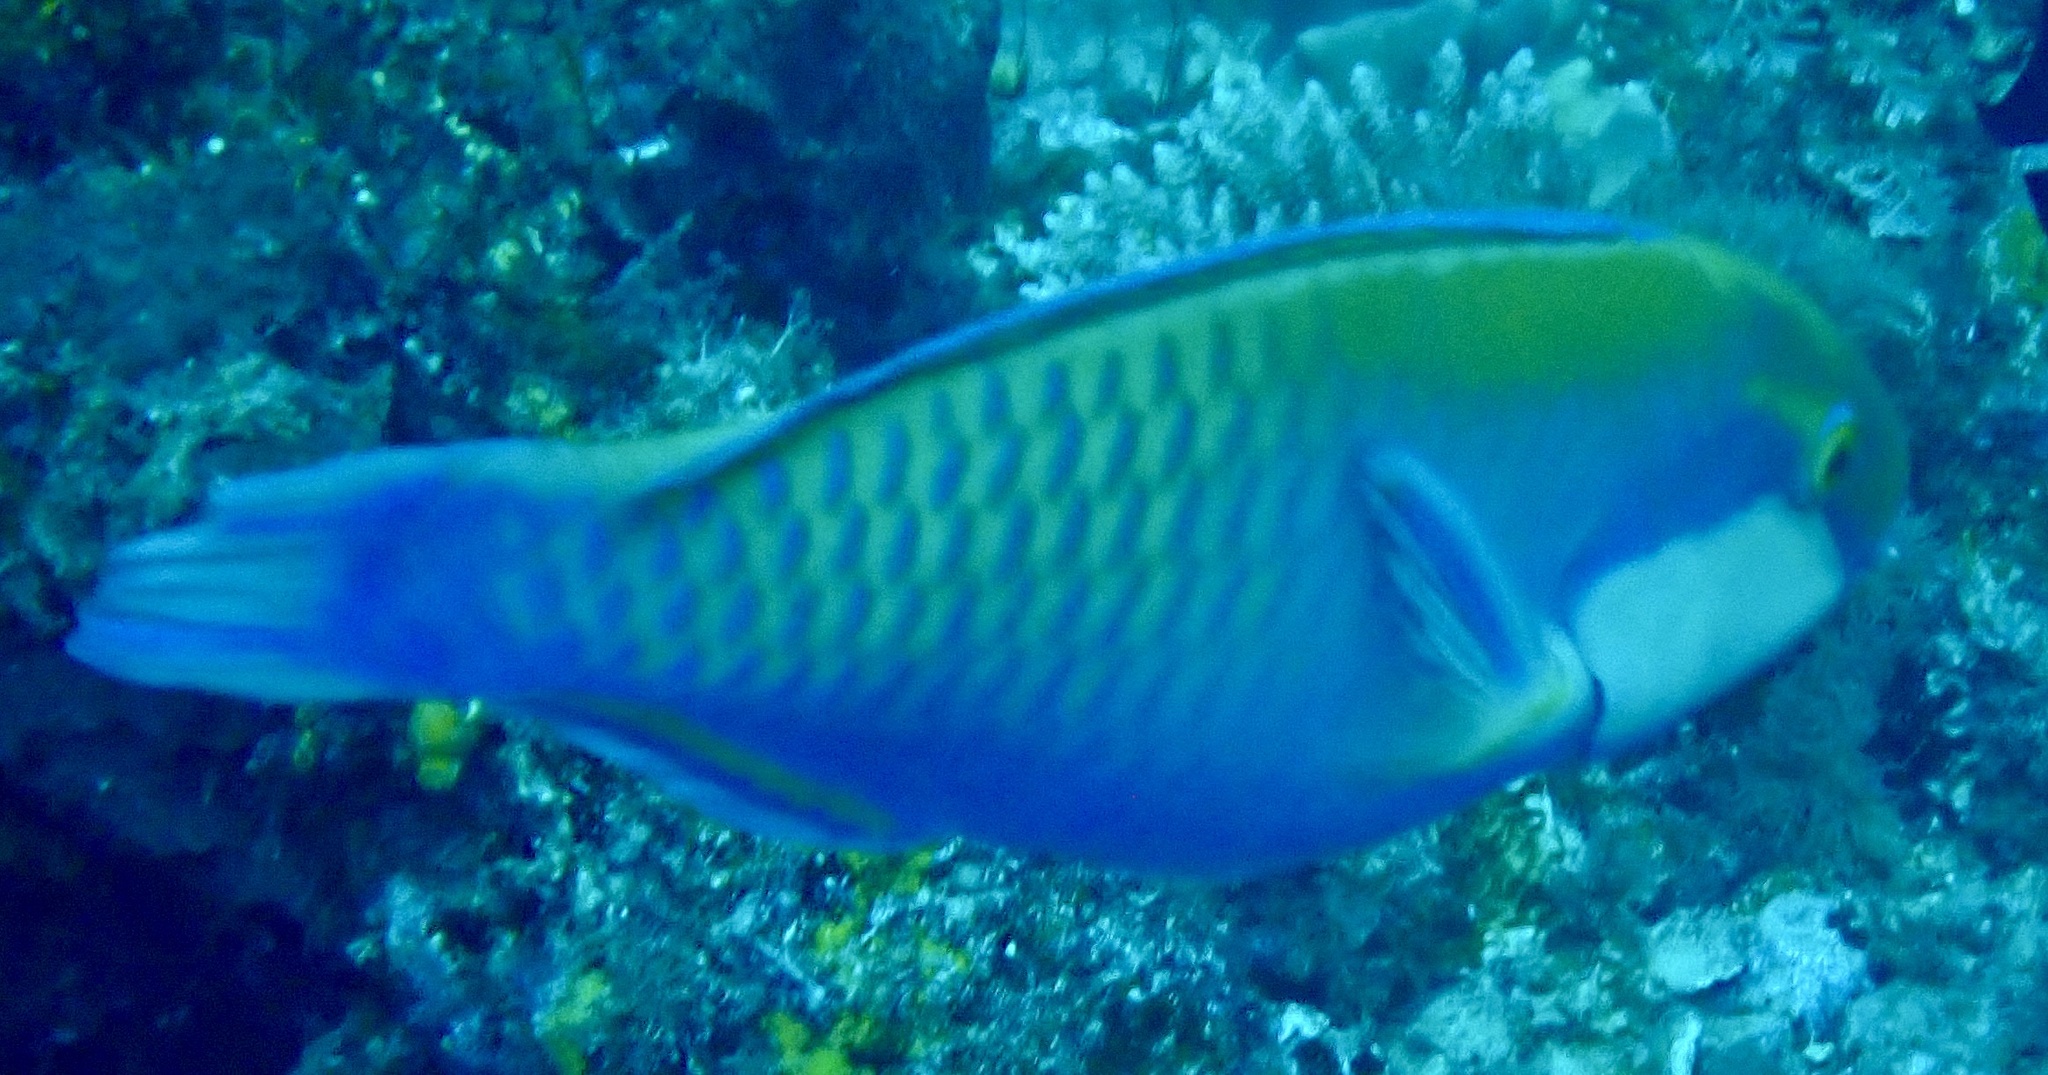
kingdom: Animalia
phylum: Chordata
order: Perciformes
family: Scaridae
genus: Chlorurus
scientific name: Chlorurus bleekeri
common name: Bleeker's parrotfish
